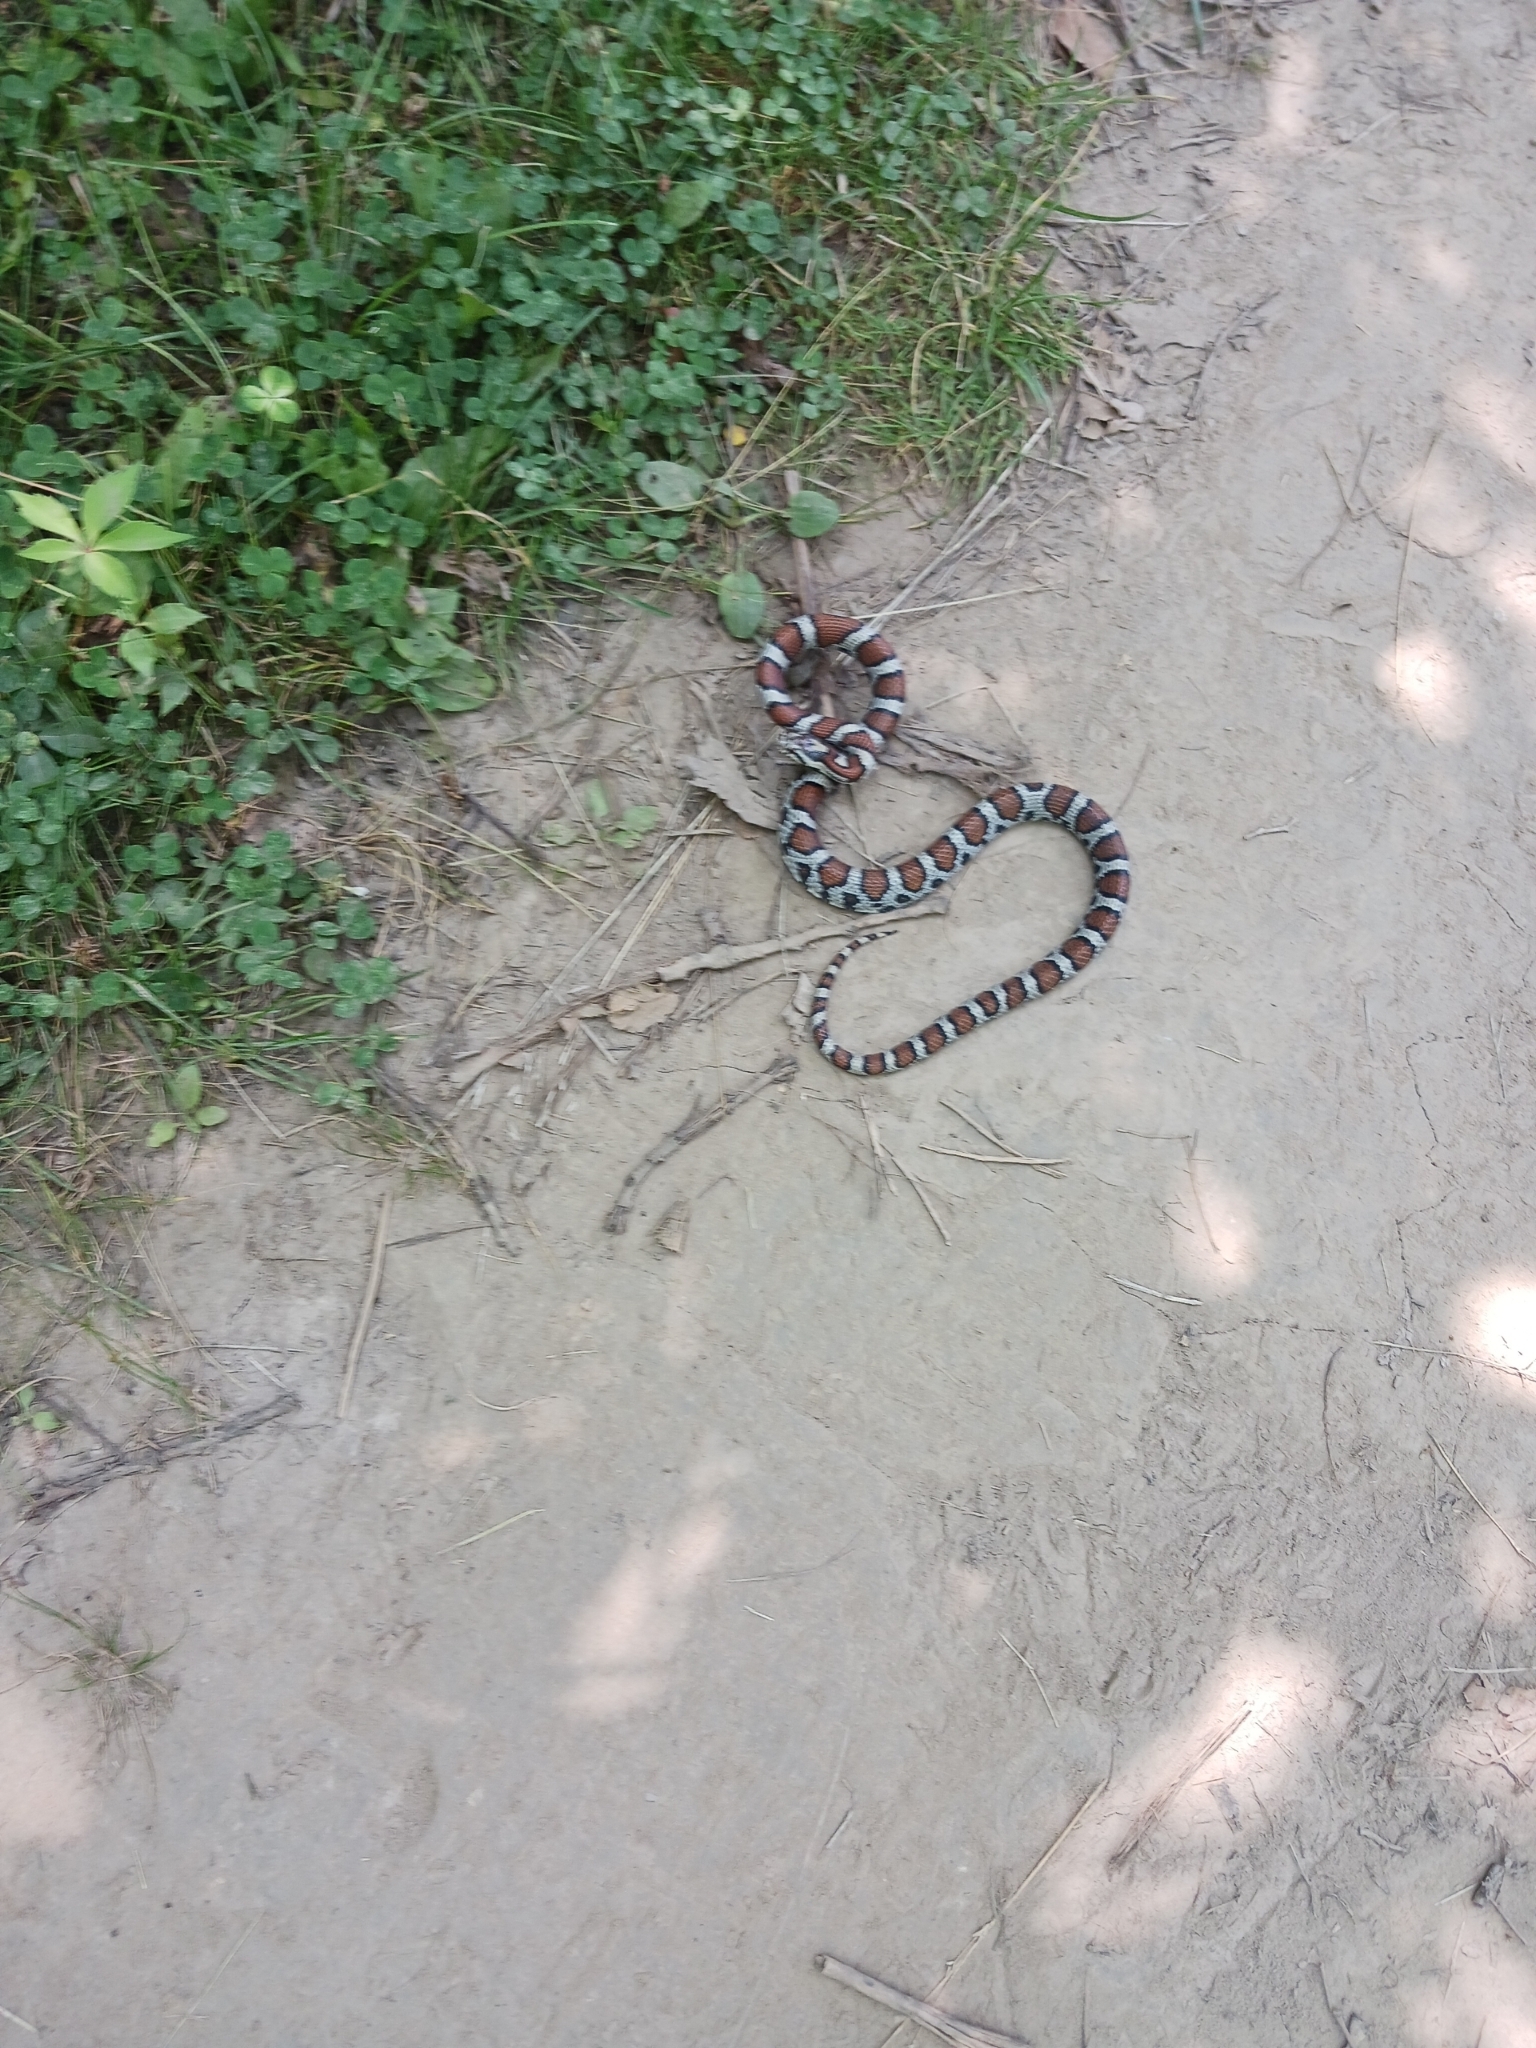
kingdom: Animalia
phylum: Chordata
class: Squamata
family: Colubridae
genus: Lampropeltis
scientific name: Lampropeltis triangulum
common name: Eastern milksnake
